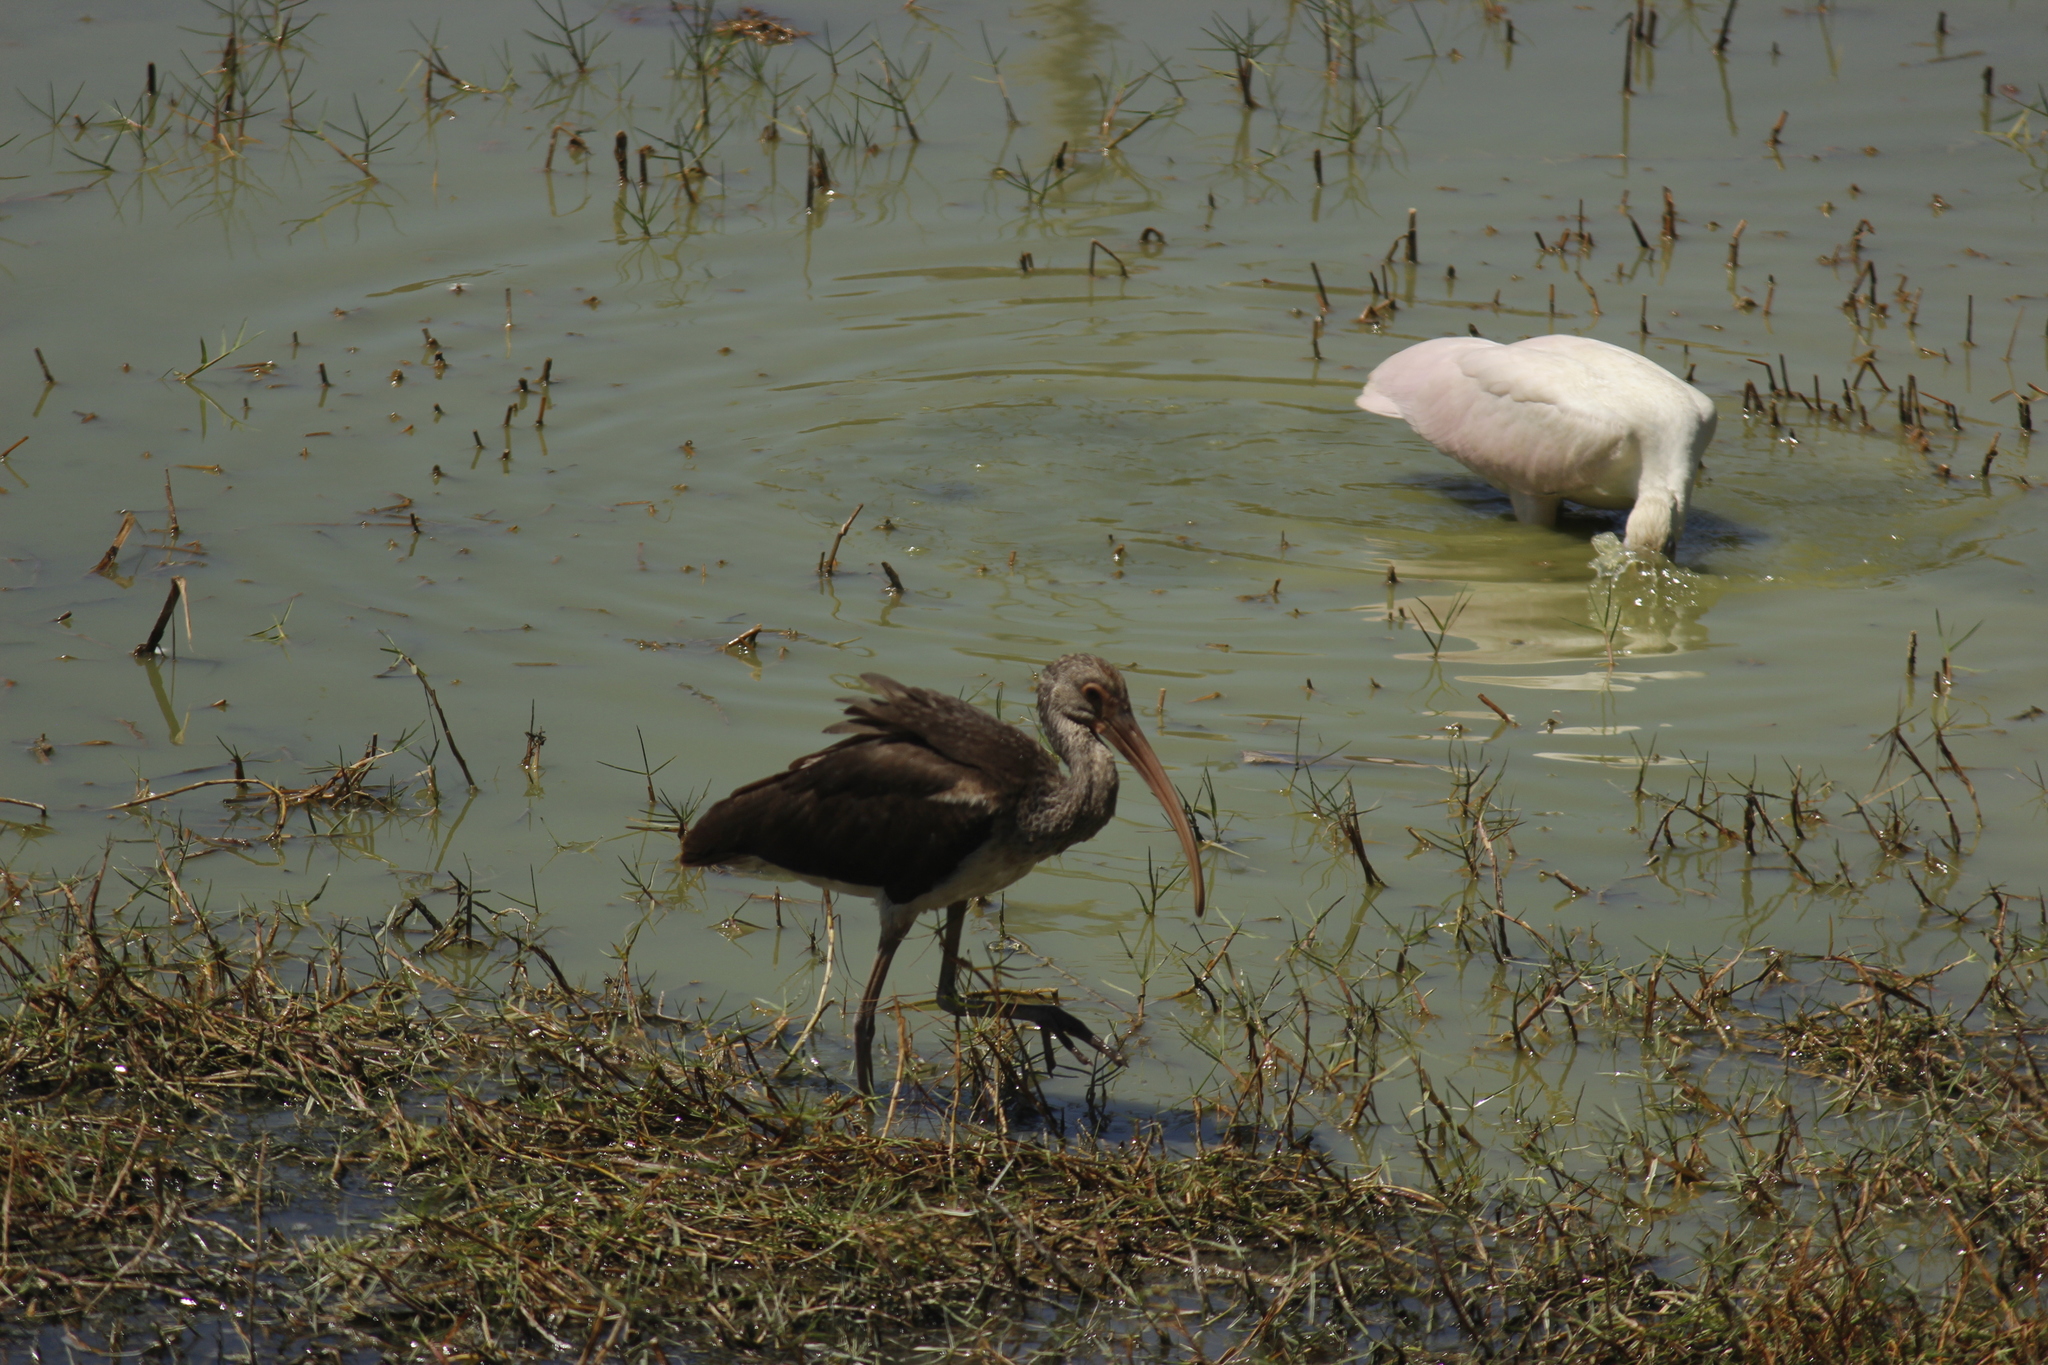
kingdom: Animalia
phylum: Chordata
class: Aves
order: Pelecaniformes
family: Threskiornithidae
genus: Eudocimus
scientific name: Eudocimus albus
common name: White ibis
